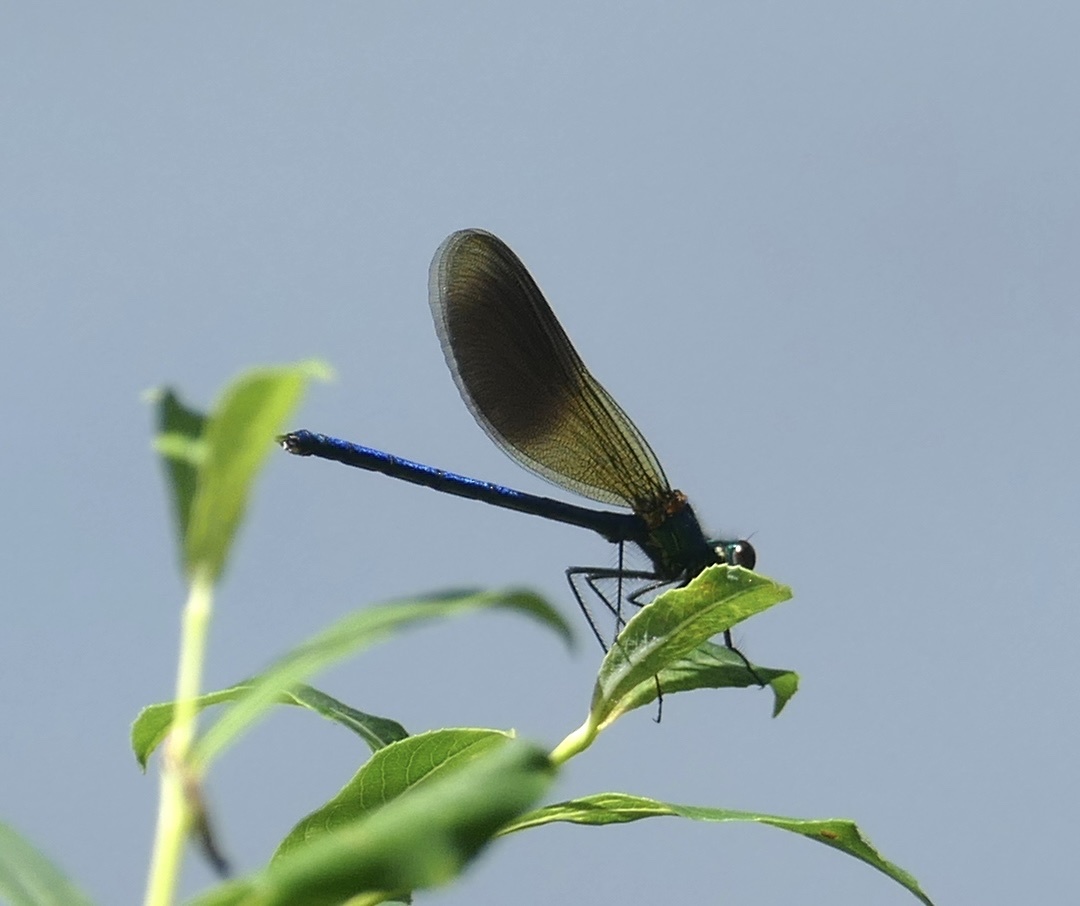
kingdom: Animalia
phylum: Arthropoda
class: Insecta
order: Odonata
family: Calopterygidae
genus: Calopteryx
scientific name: Calopteryx splendens
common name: Banded demoiselle
